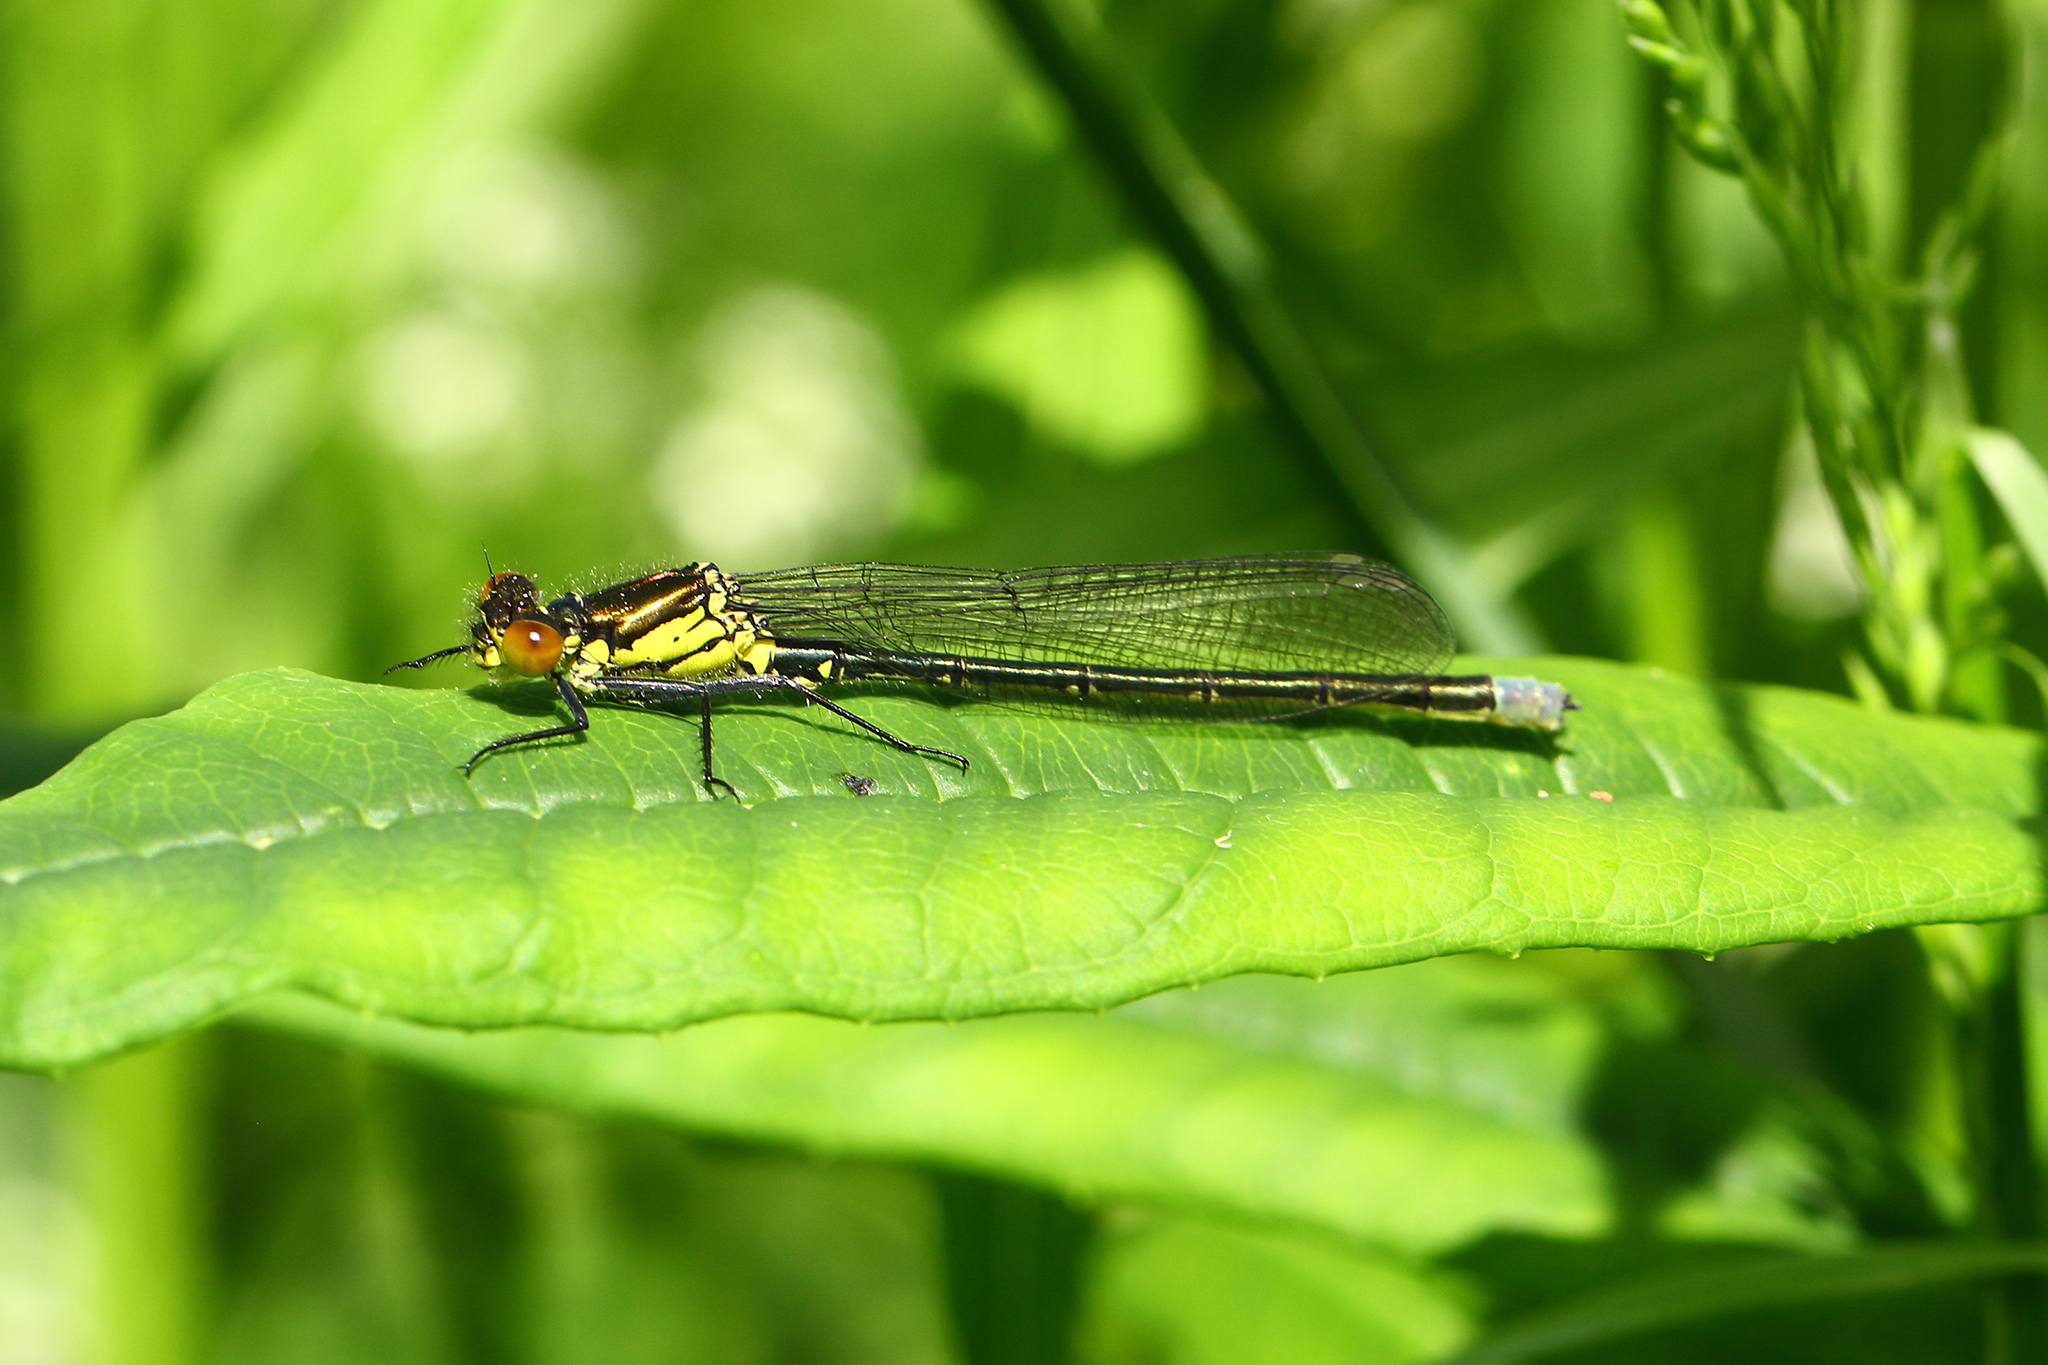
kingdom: Animalia
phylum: Arthropoda
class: Insecta
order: Odonata
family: Coenagrionidae
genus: Erythromma
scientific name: Erythromma najas
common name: Red-eyed damselfly
